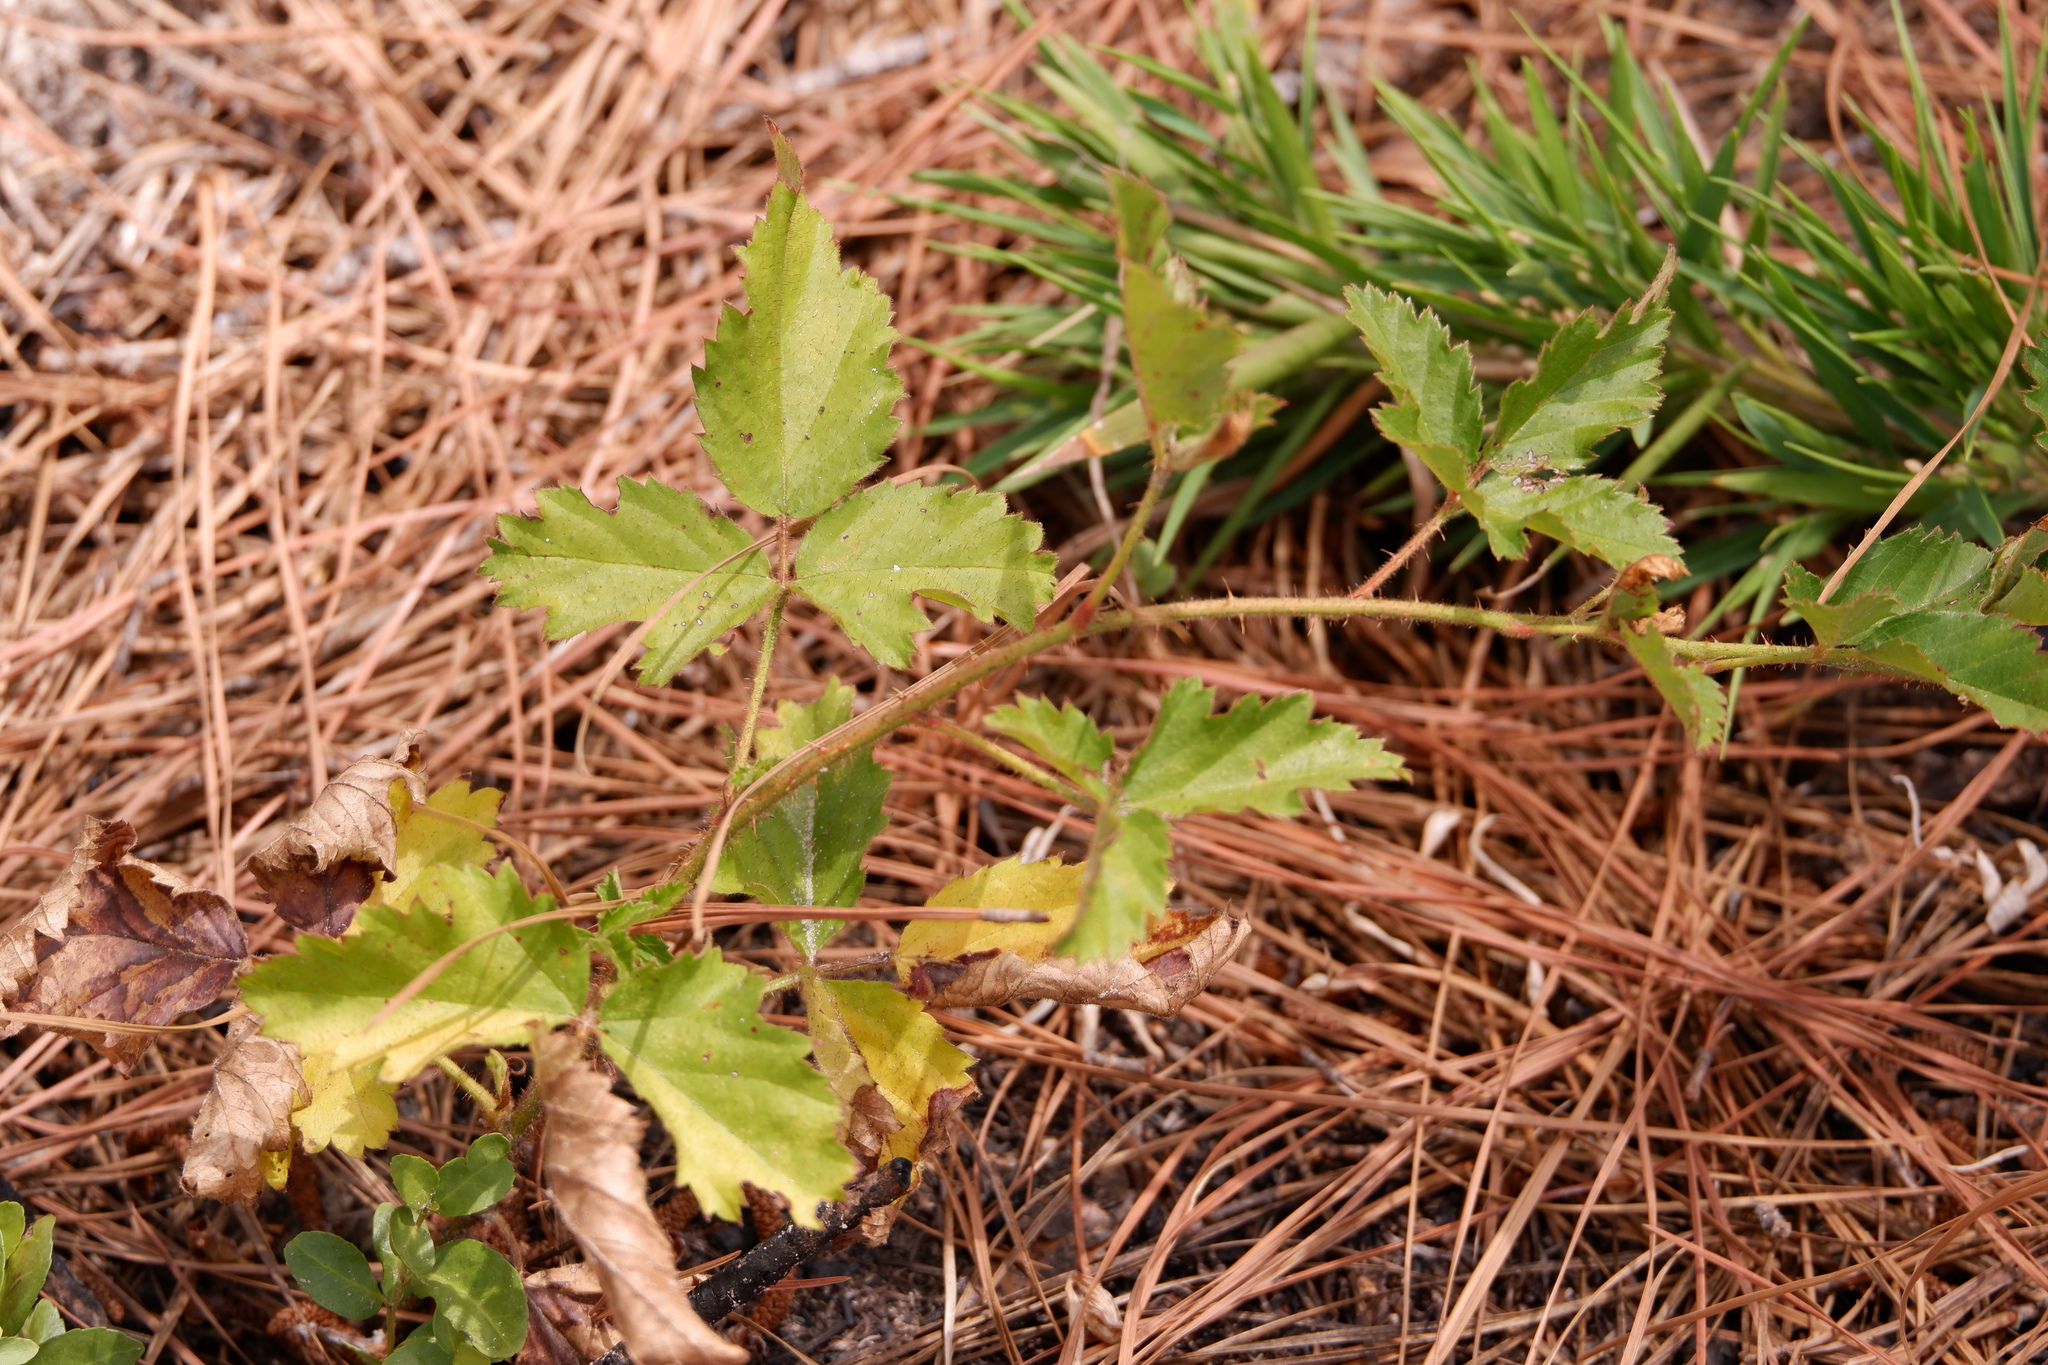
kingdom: Plantae
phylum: Tracheophyta
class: Magnoliopsida
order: Rosales
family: Rosaceae
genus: Rubus
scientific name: Rubus trivialis
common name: Southern dewberry
